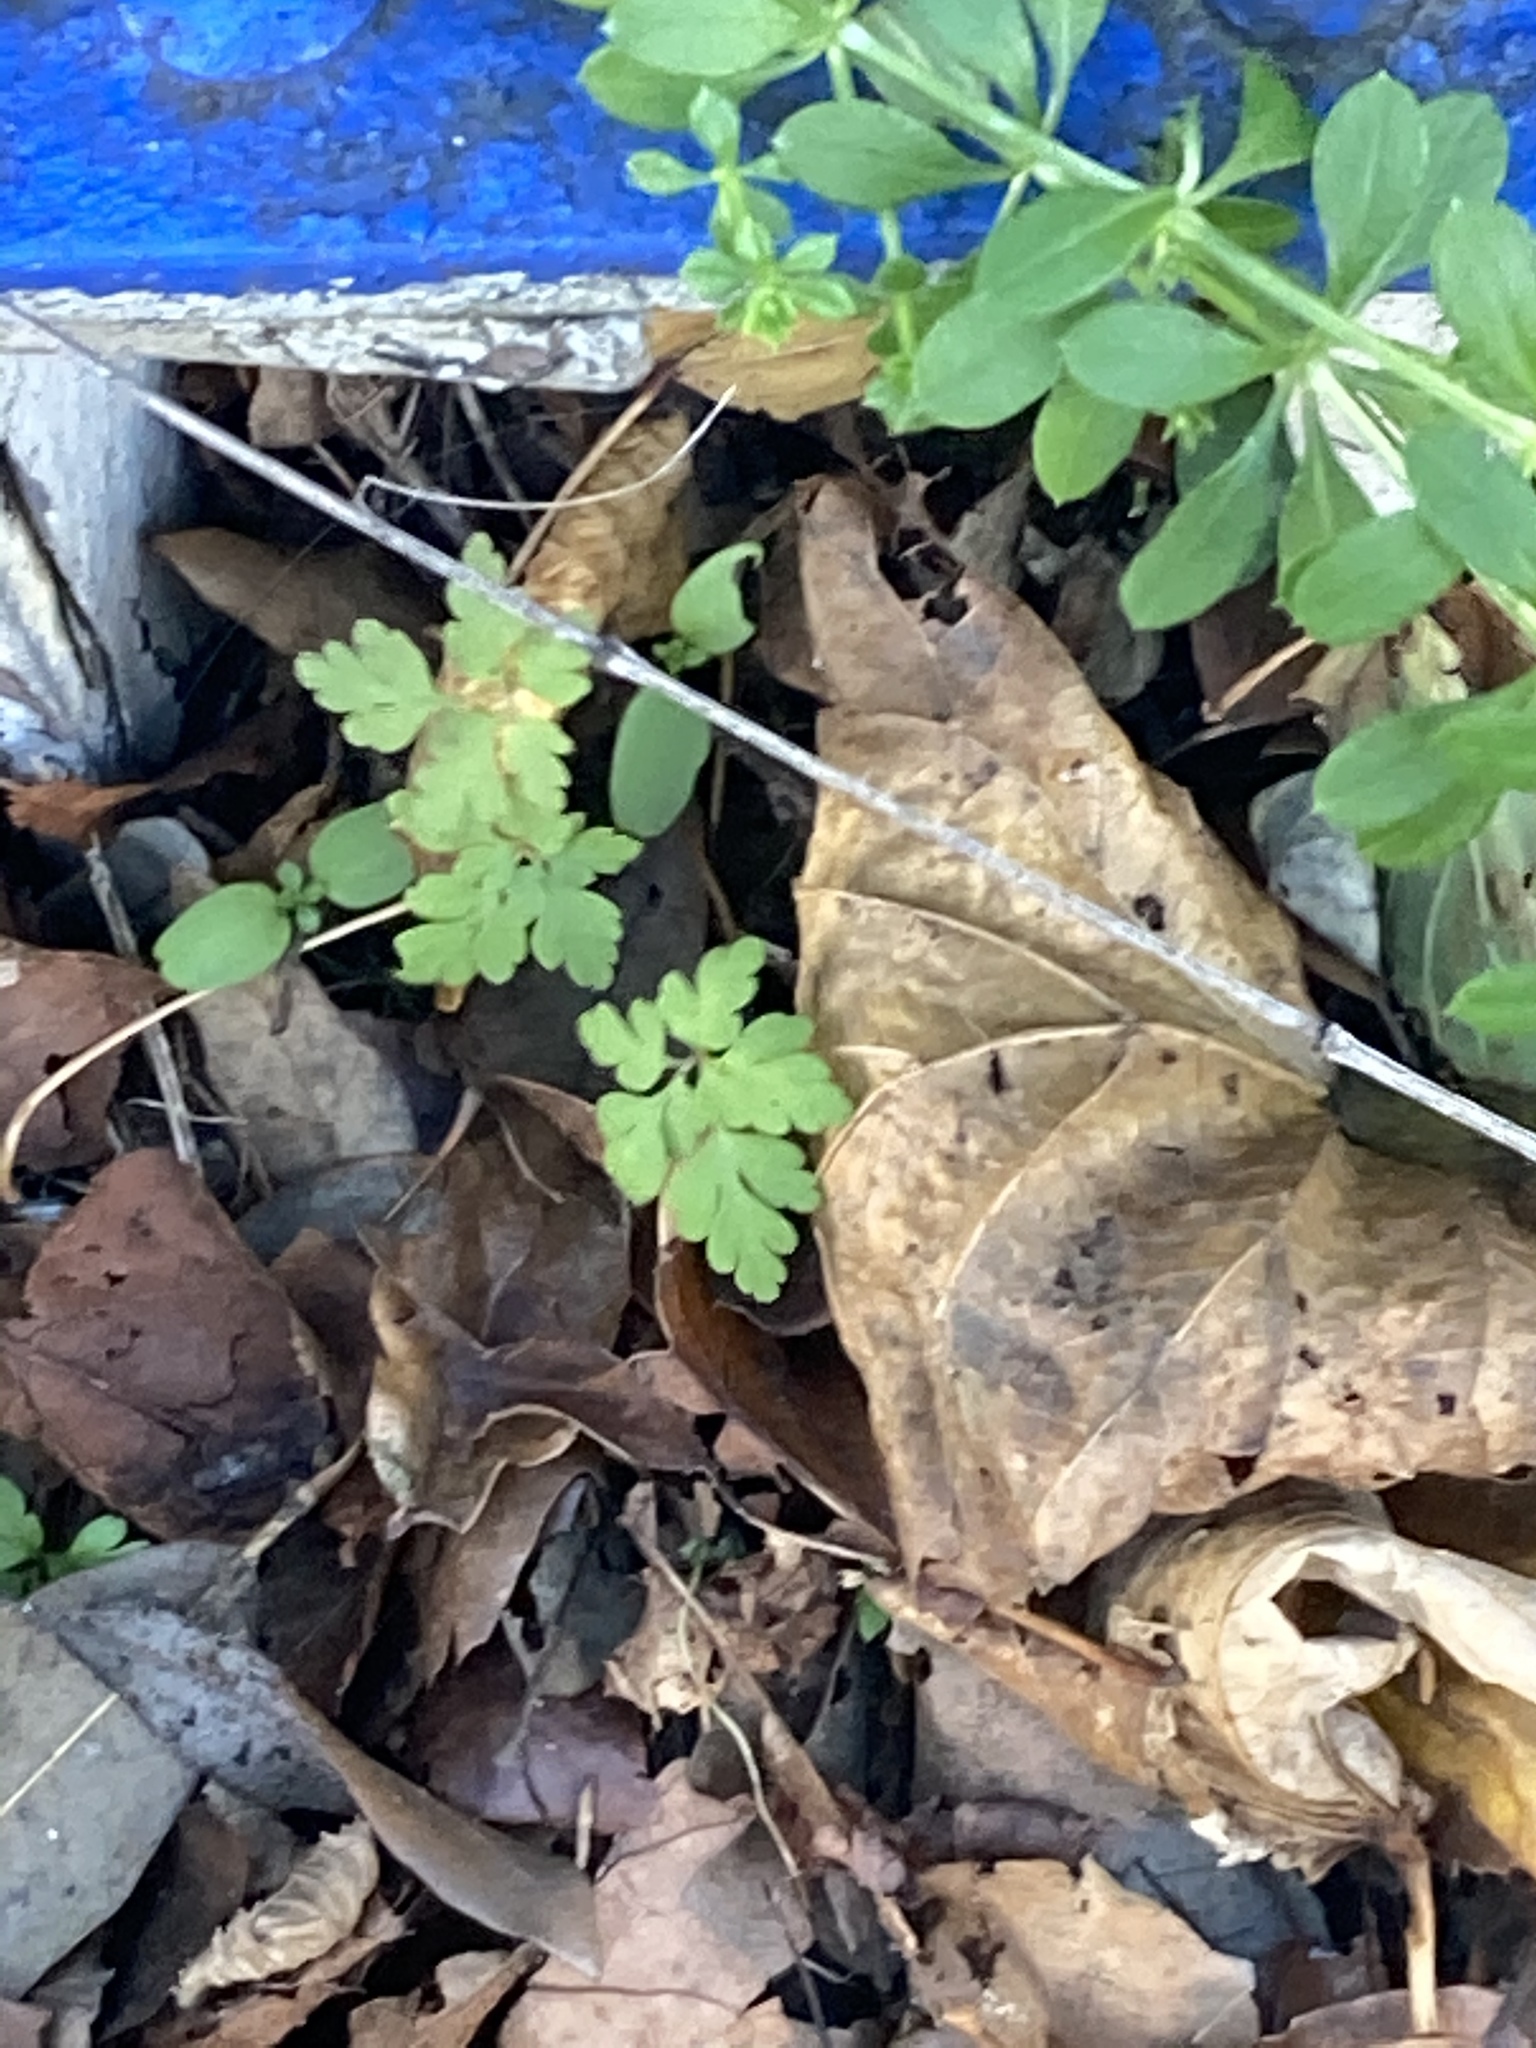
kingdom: Plantae
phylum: Tracheophyta
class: Magnoliopsida
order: Geraniales
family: Geraniaceae
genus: Geranium
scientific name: Geranium robertianum
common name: Herb-robert
